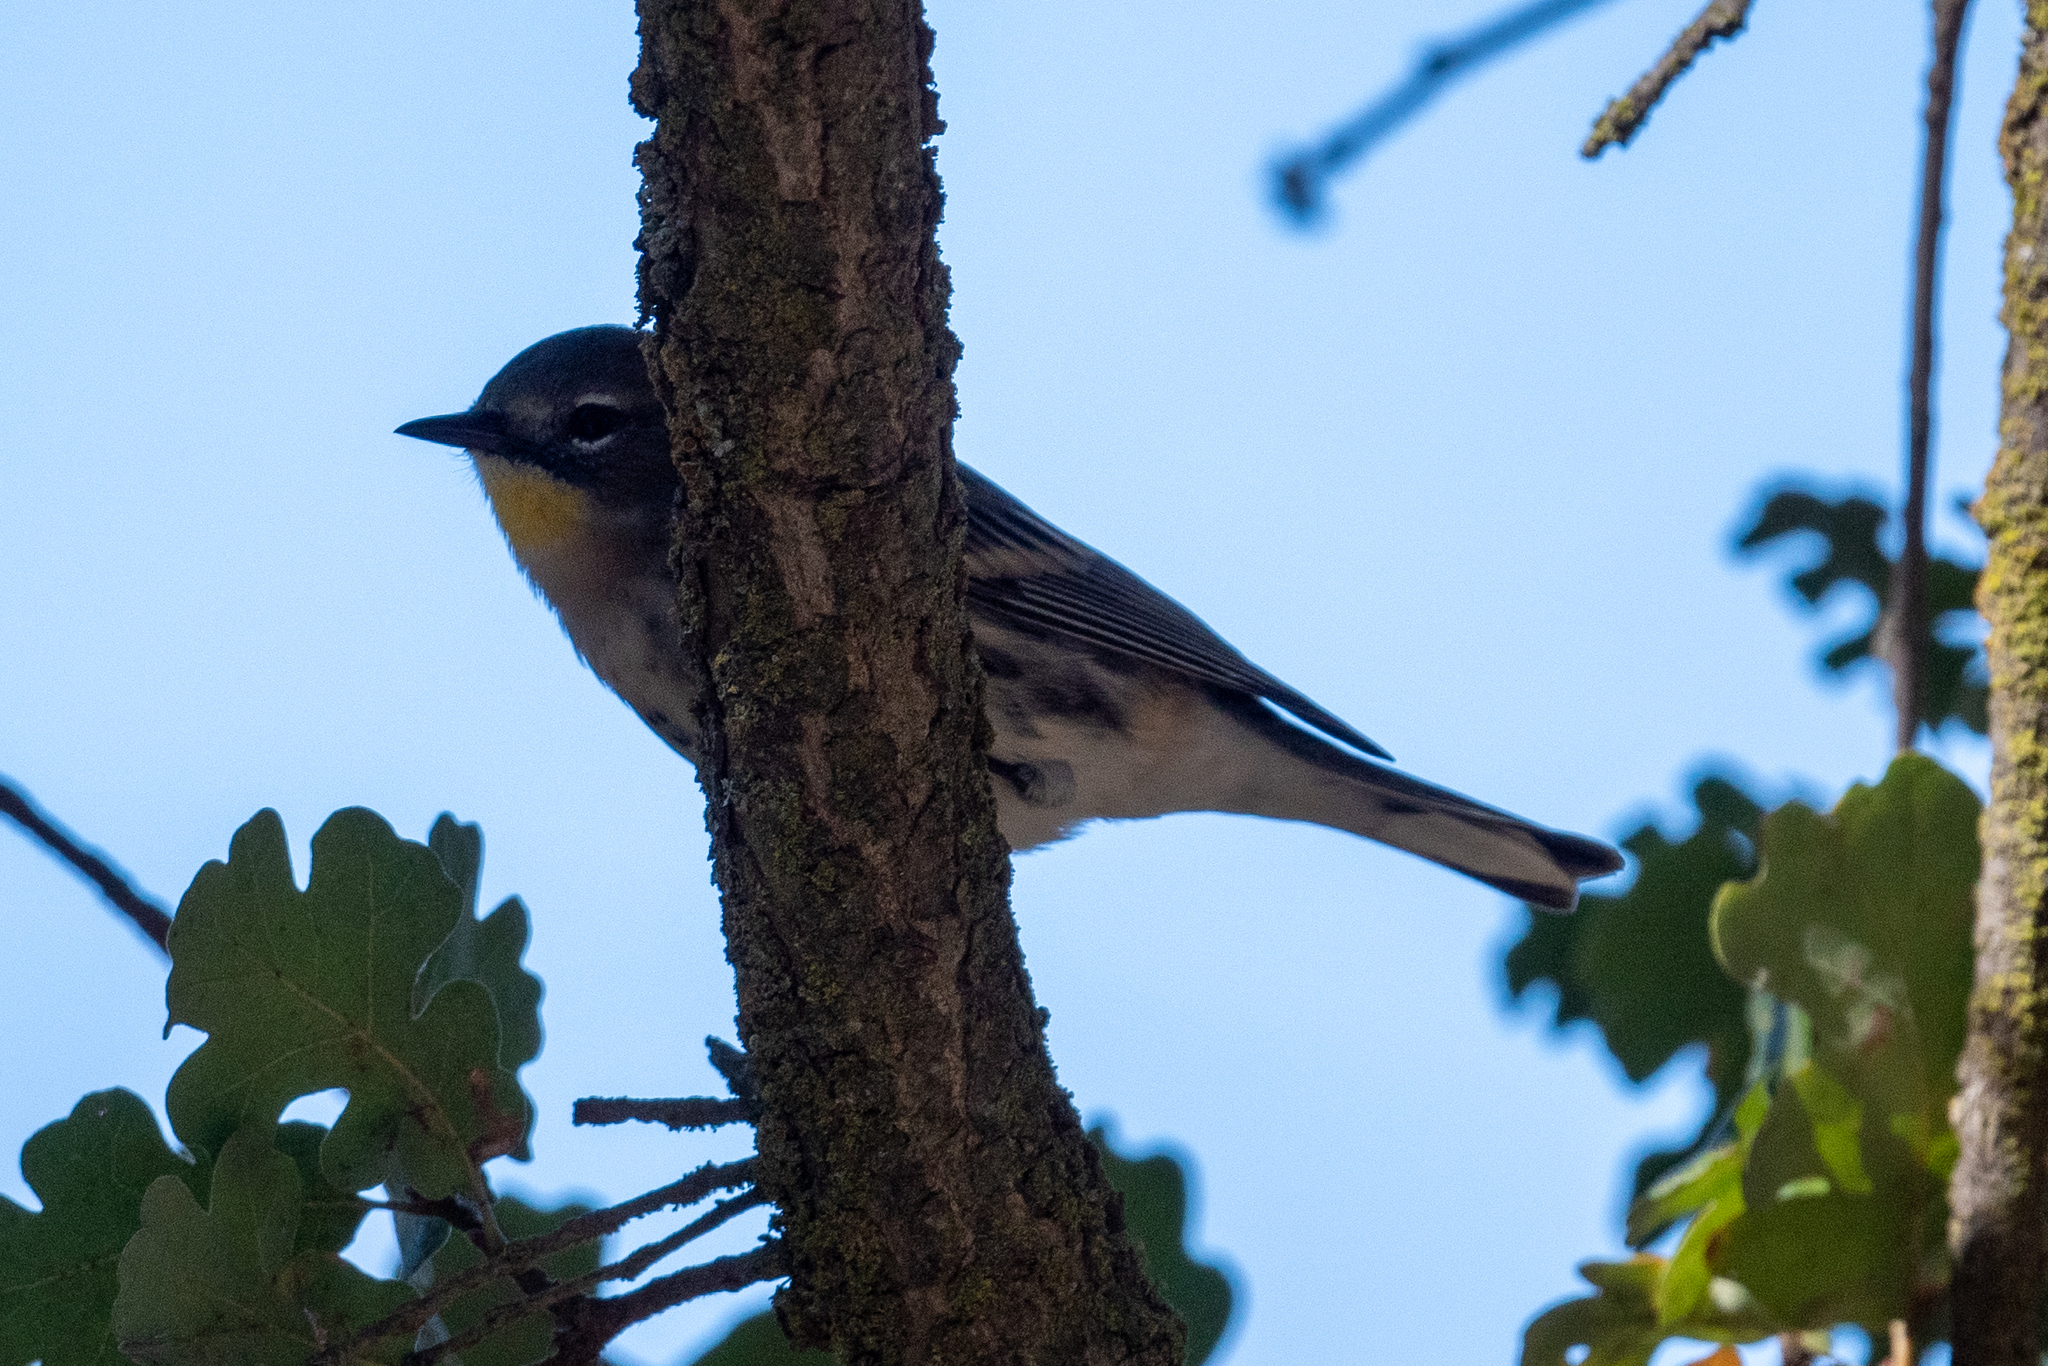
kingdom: Animalia
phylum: Chordata
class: Aves
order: Passeriformes
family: Parulidae
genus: Setophaga
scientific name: Setophaga coronata
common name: Myrtle warbler
